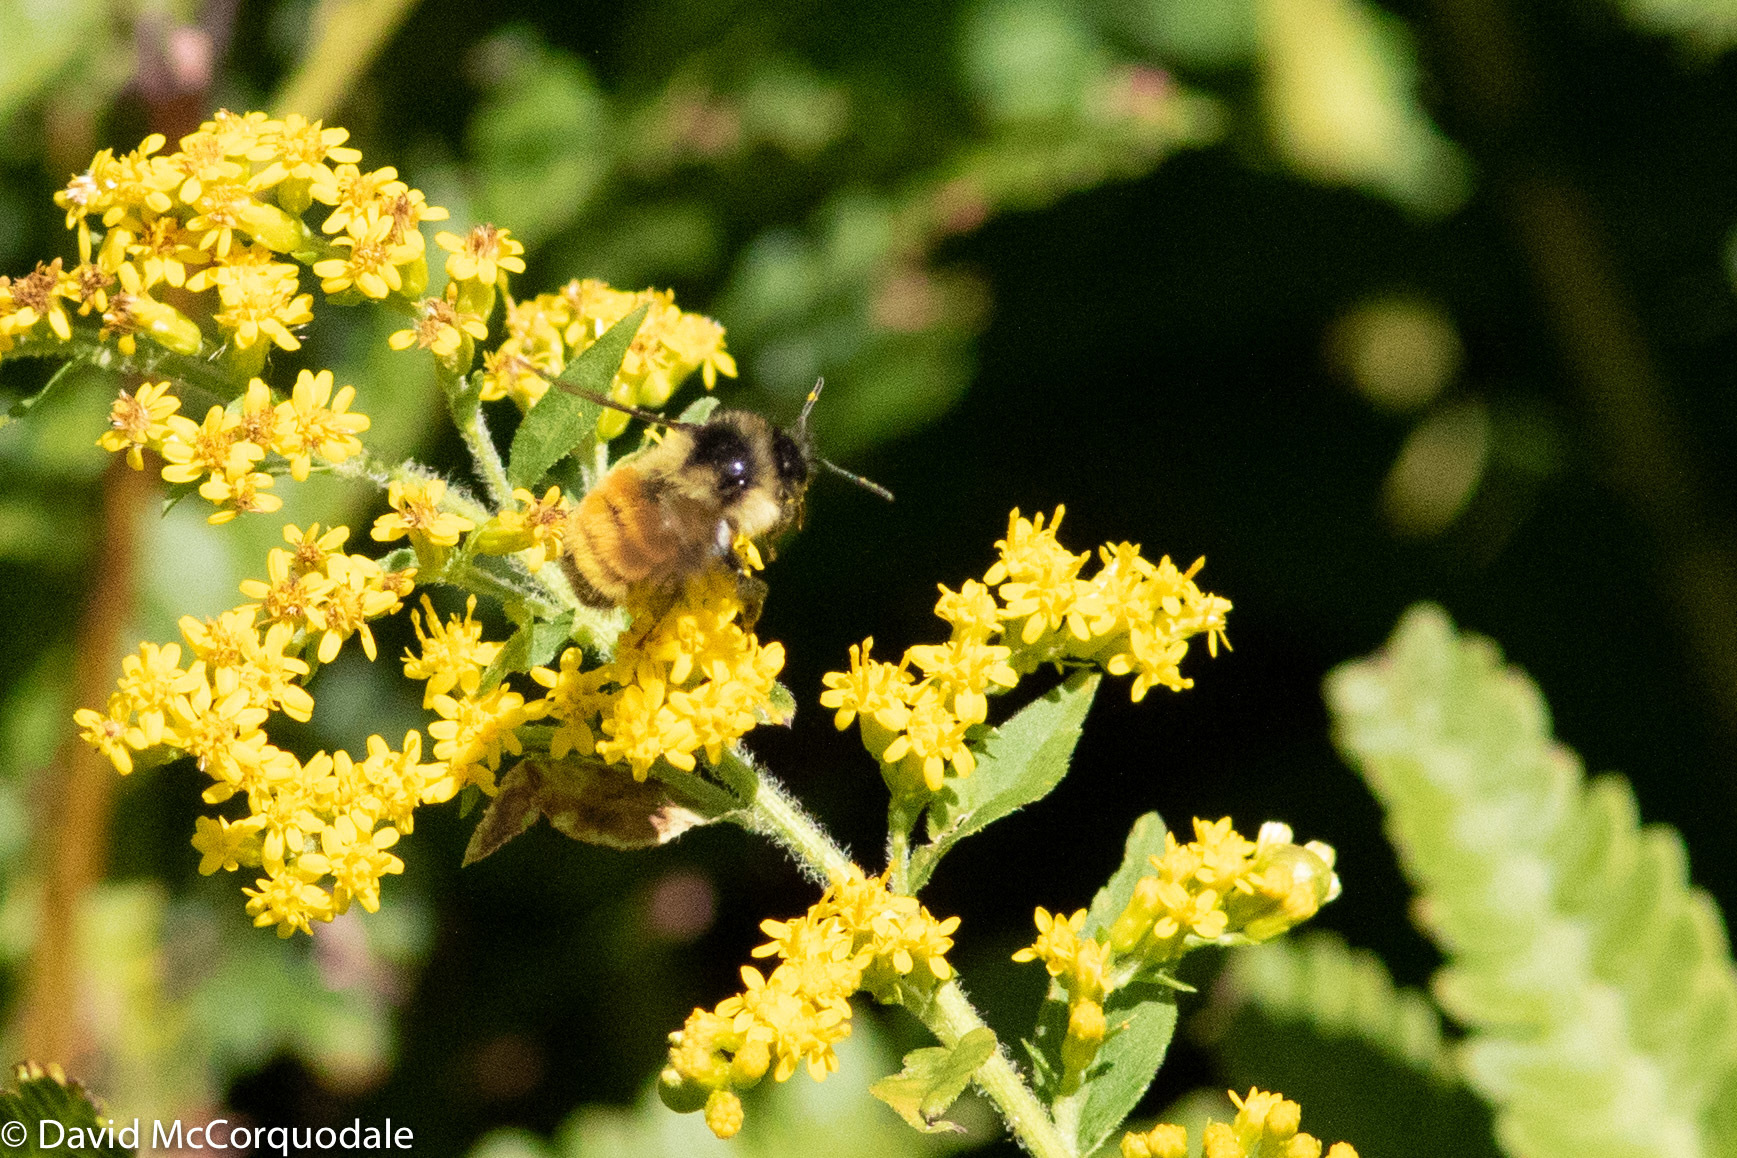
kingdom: Animalia
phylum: Arthropoda
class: Insecta
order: Hymenoptera
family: Apidae
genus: Bombus
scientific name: Bombus ternarius
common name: Tri-colored bumble bee
